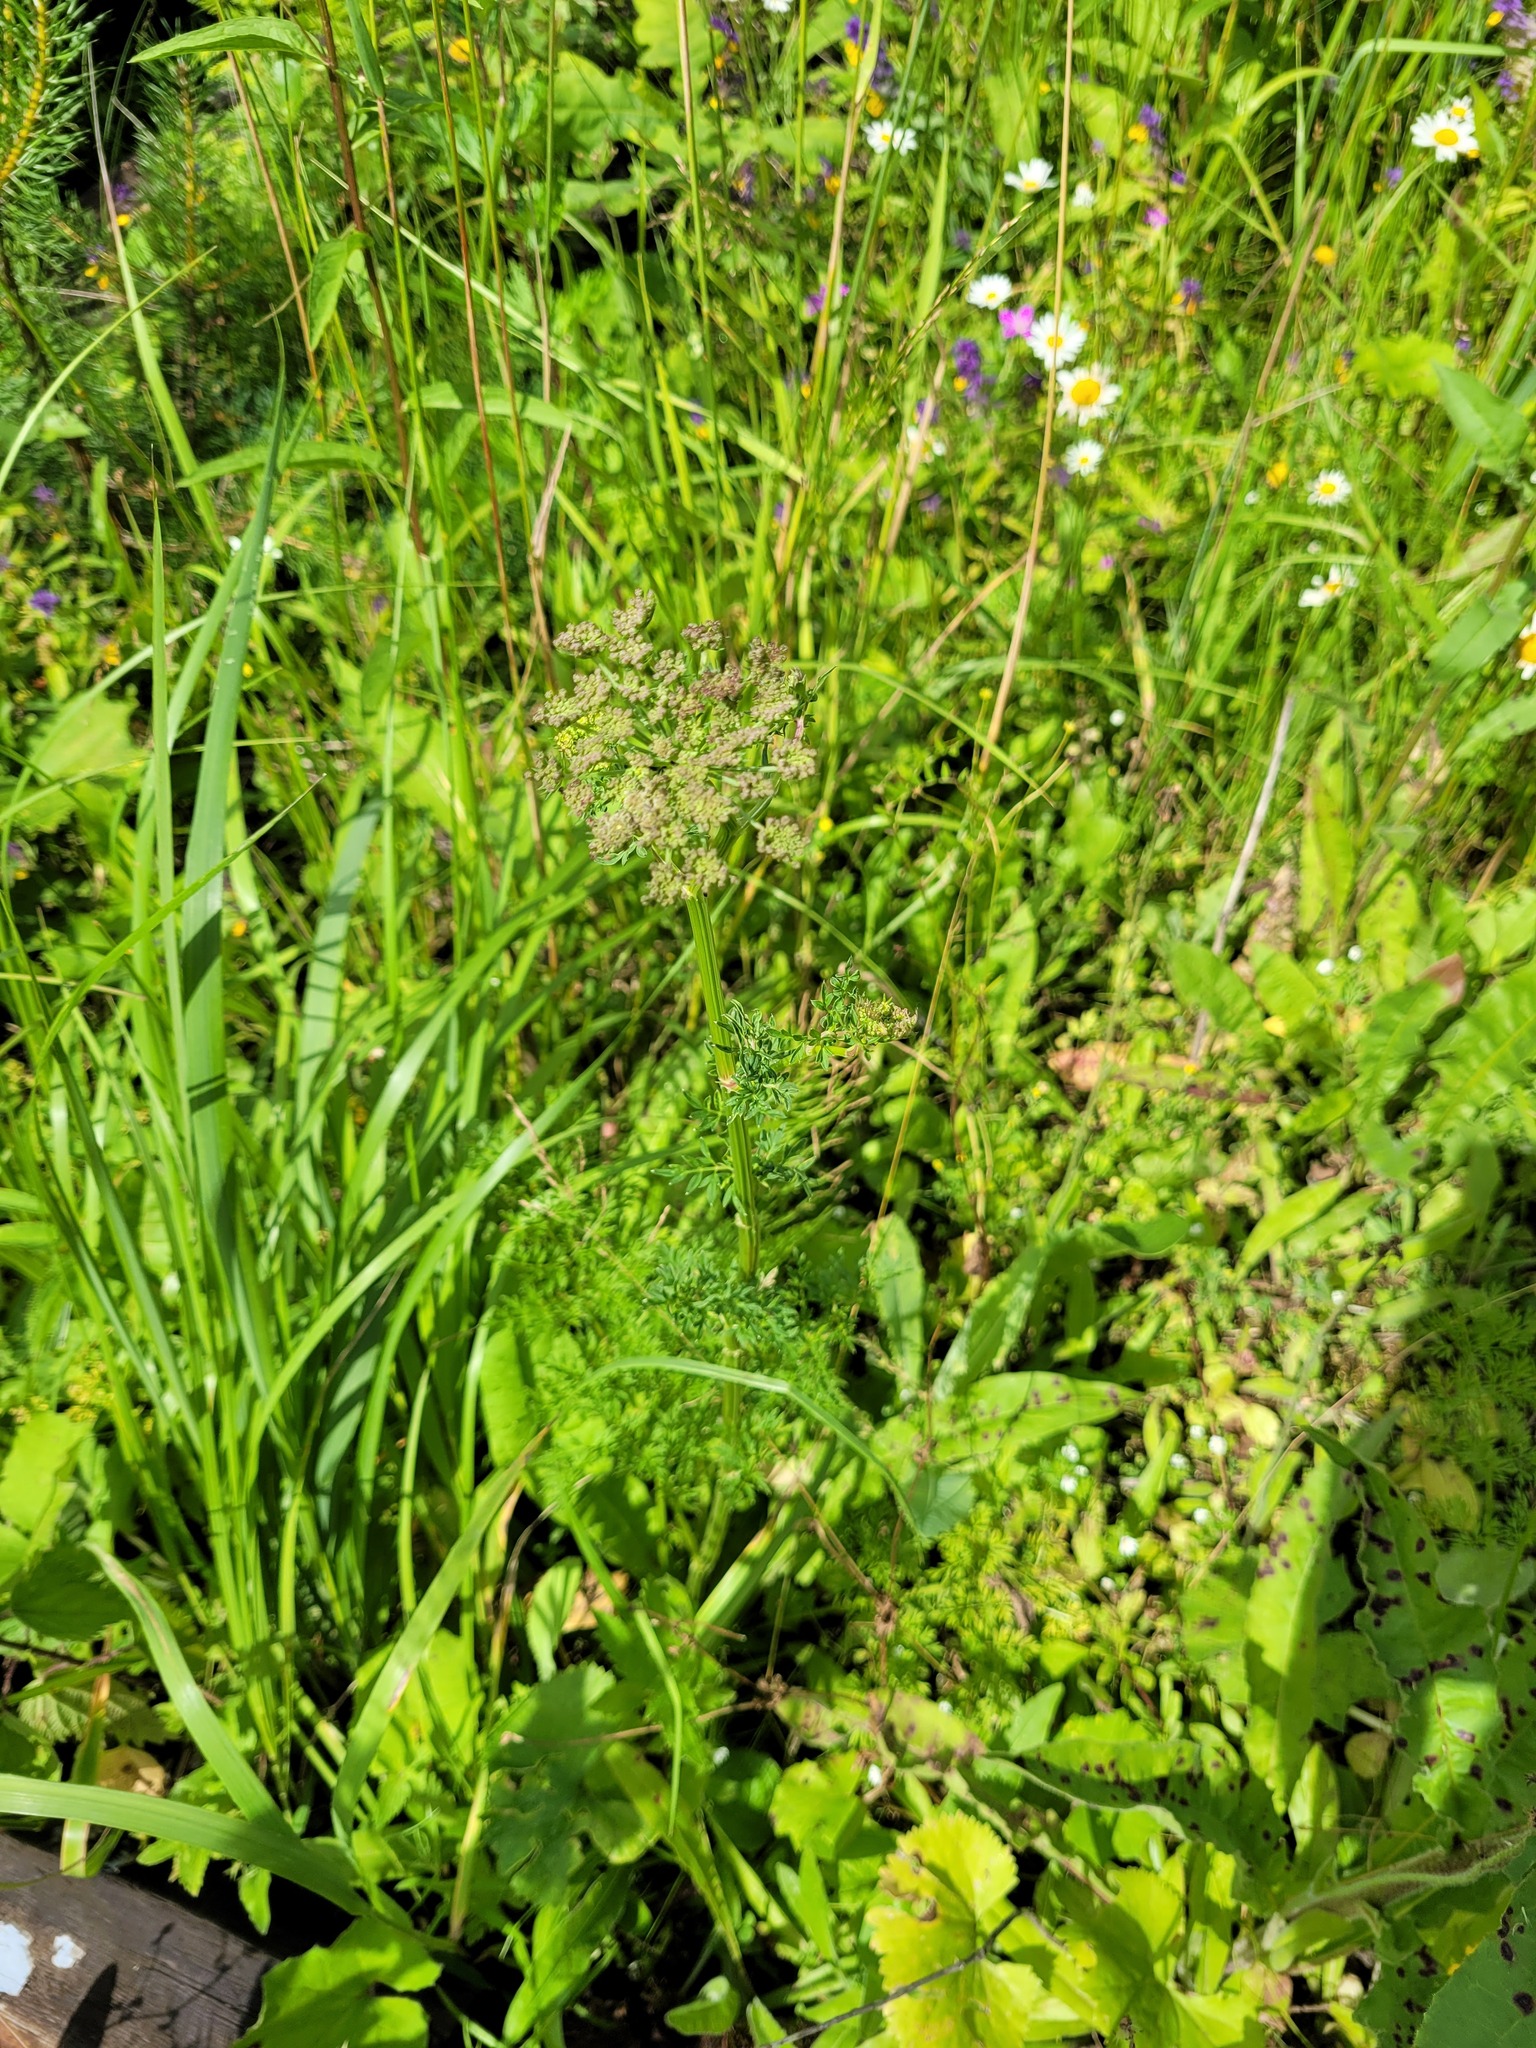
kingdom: Plantae
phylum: Tracheophyta
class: Magnoliopsida
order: Apiales
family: Apiaceae
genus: Selinum
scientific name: Selinum carvifolia
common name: Cambridge milk-parsley
